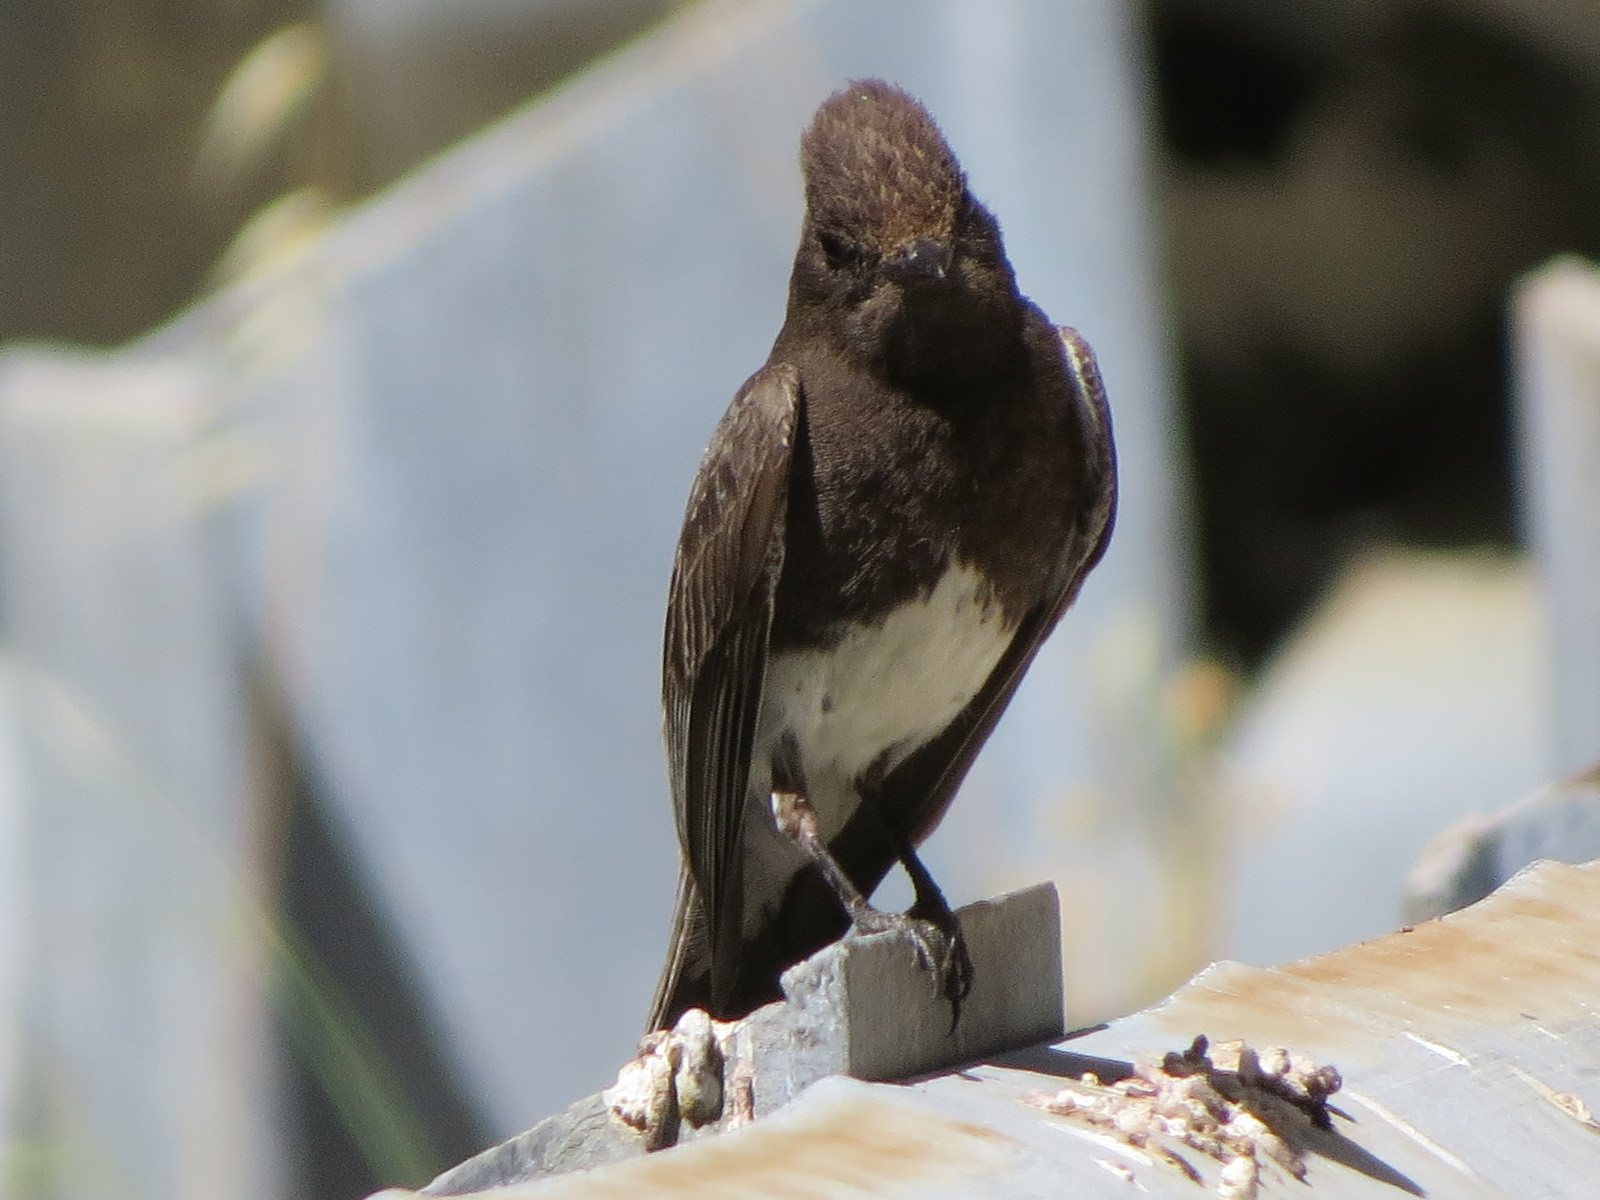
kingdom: Animalia
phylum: Chordata
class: Aves
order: Passeriformes
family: Tyrannidae
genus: Sayornis
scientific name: Sayornis nigricans
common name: Black phoebe
